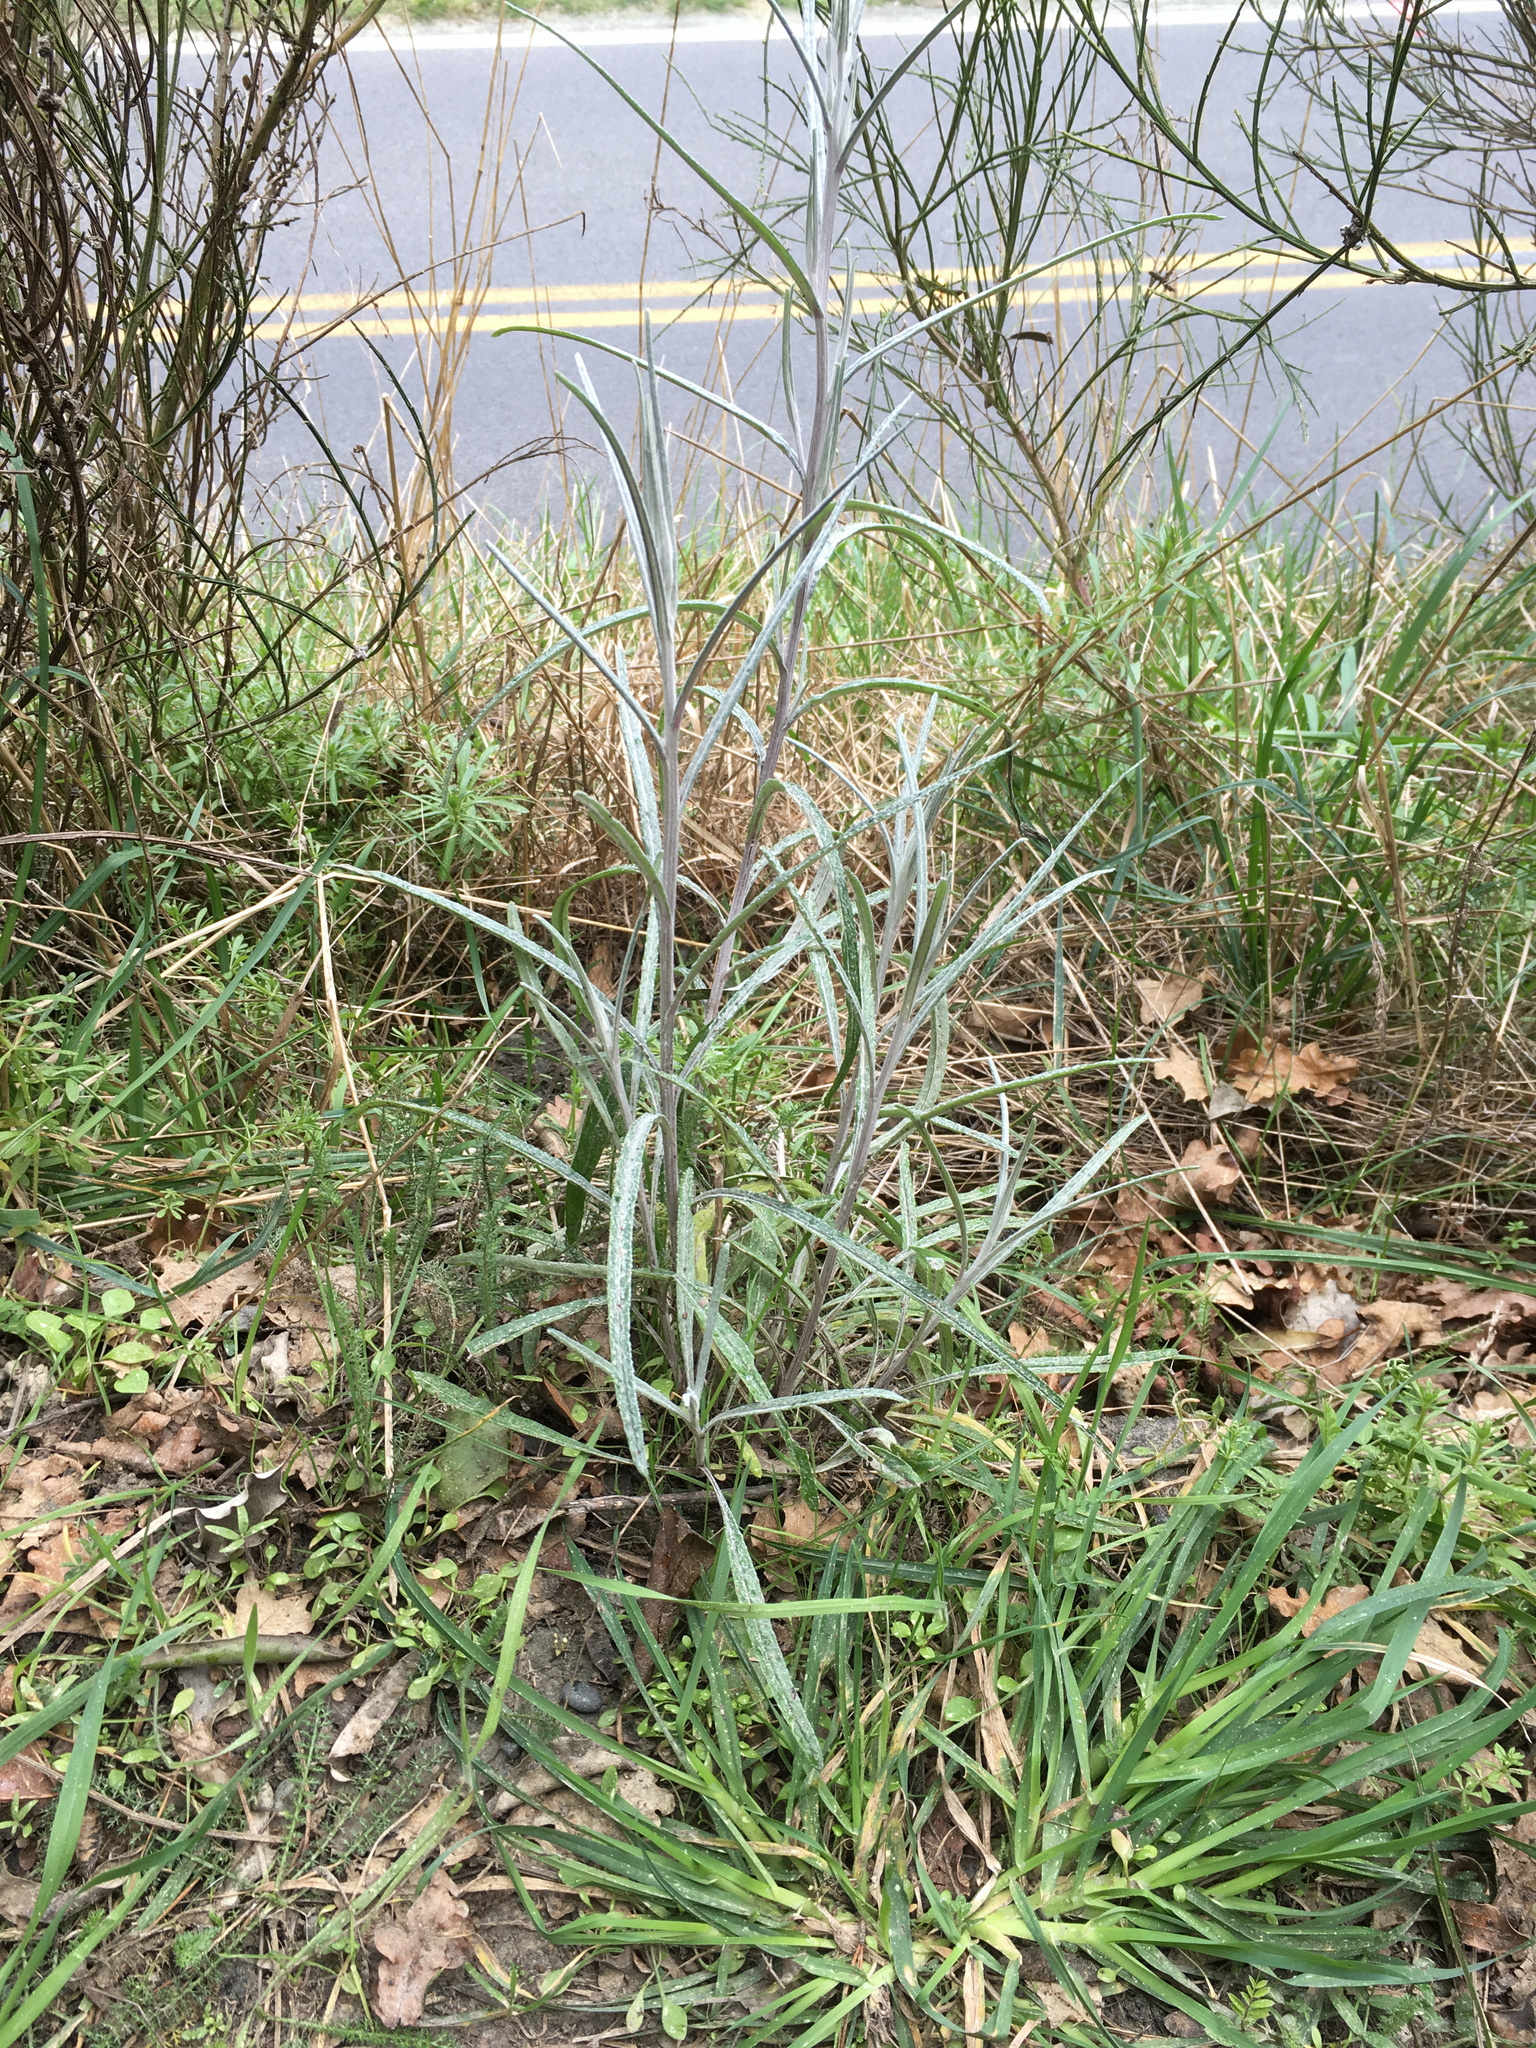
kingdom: Plantae
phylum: Tracheophyta
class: Magnoliopsida
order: Asterales
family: Asteraceae
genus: Senecio
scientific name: Senecio quadridentatus
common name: Cotton fireweed
